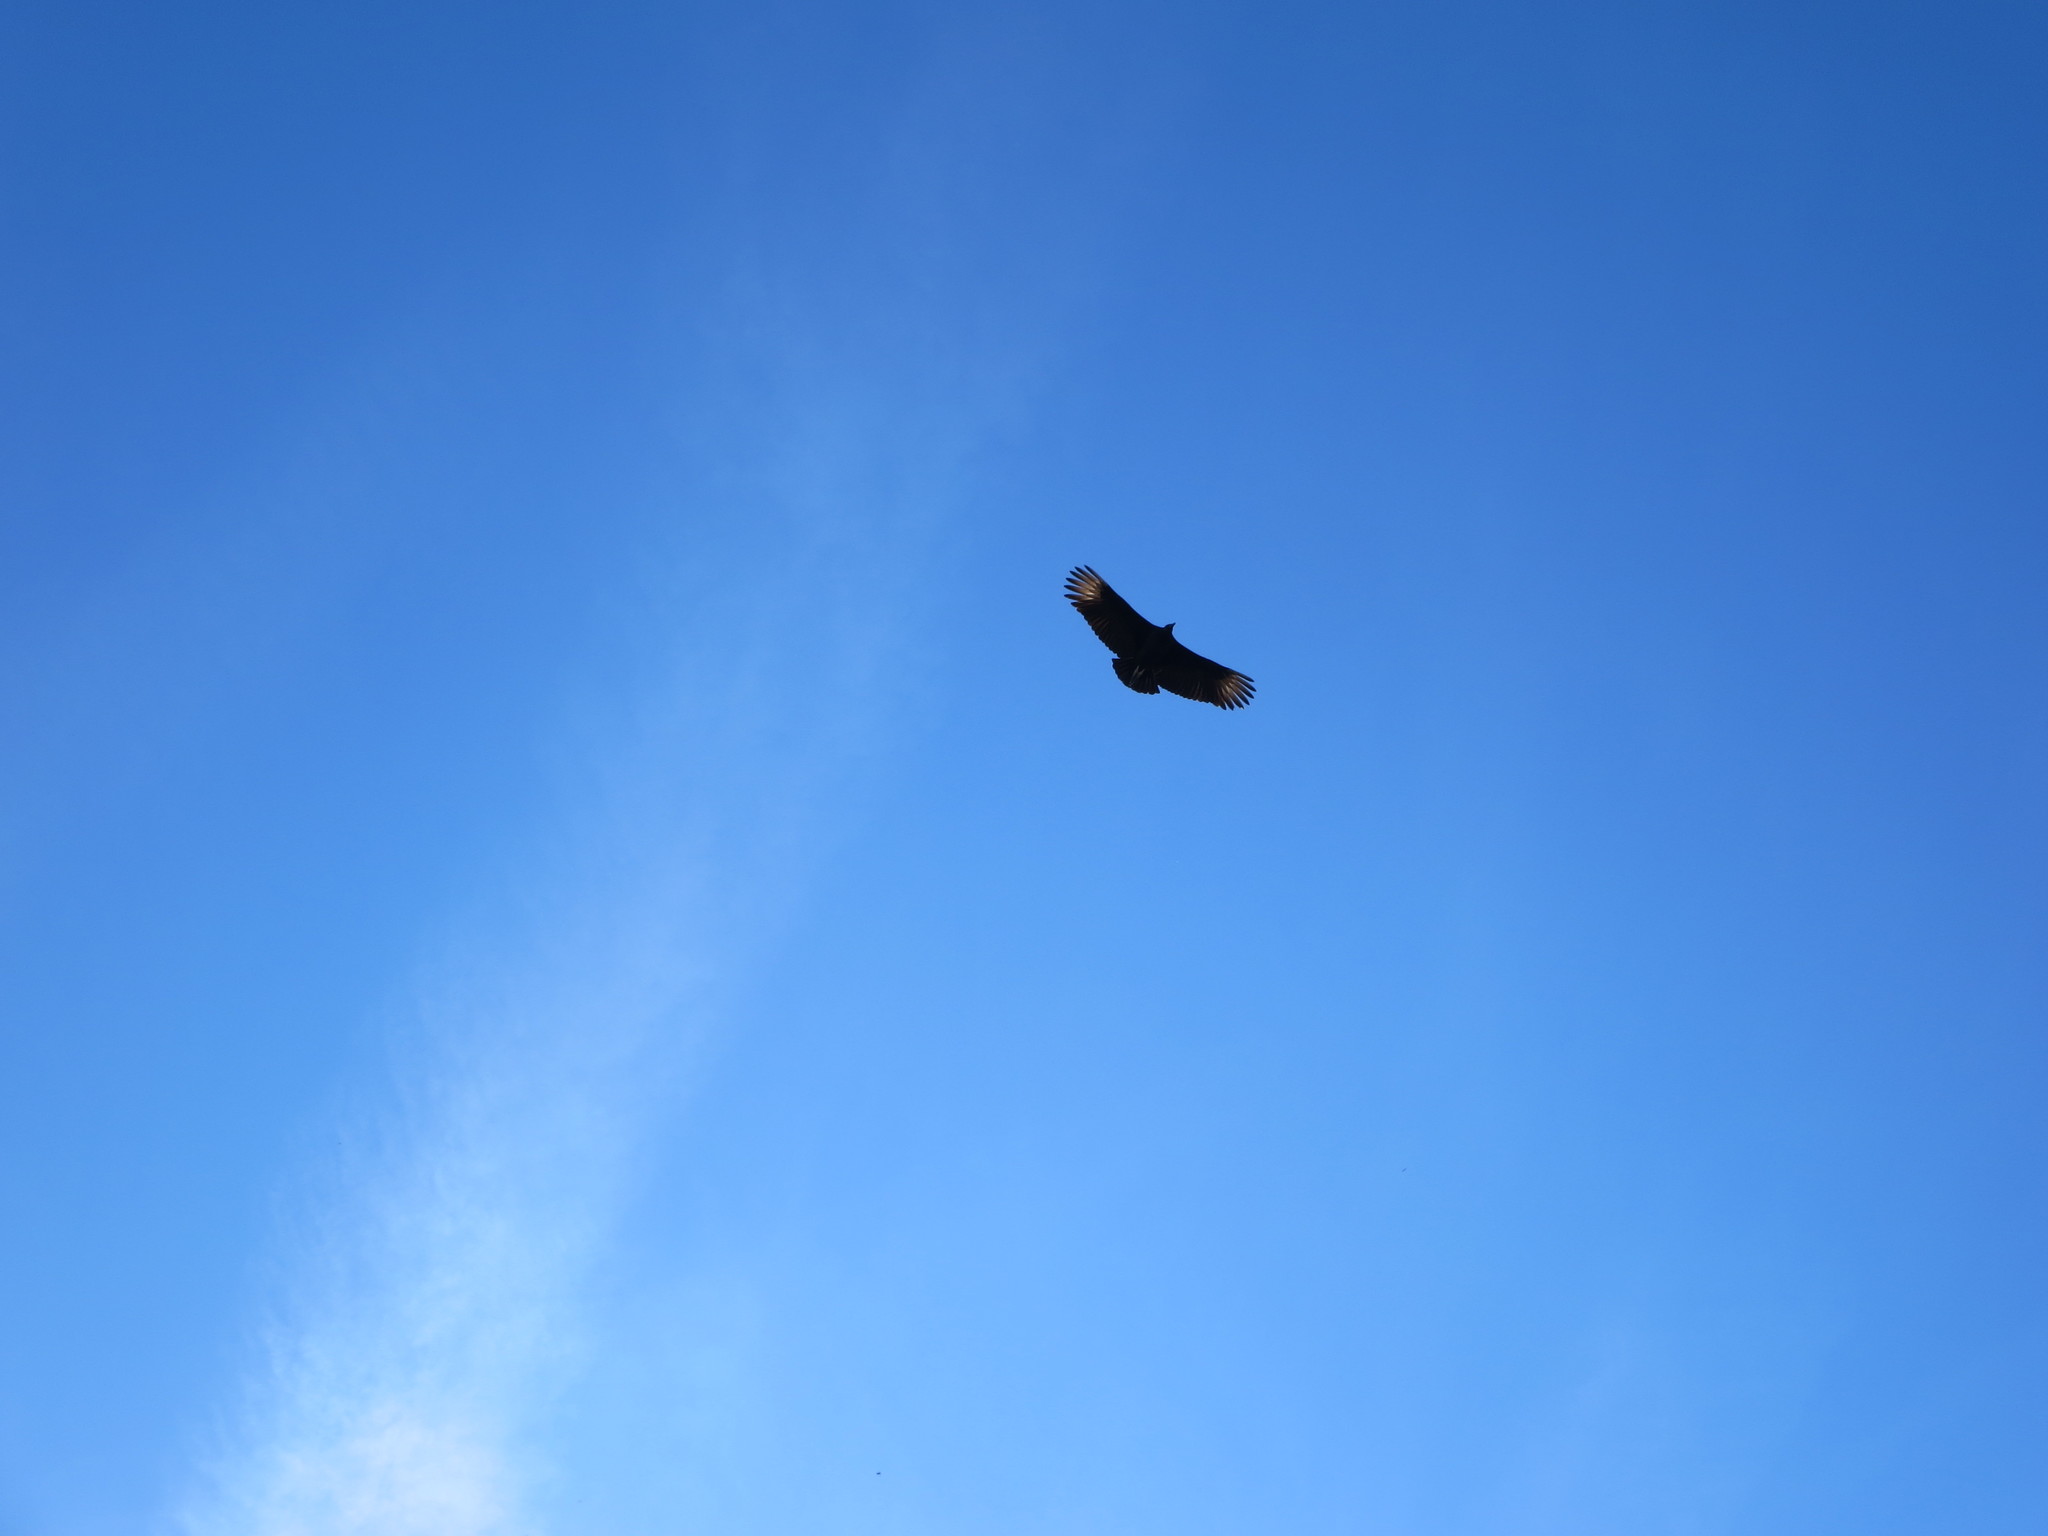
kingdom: Animalia
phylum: Chordata
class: Aves
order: Accipitriformes
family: Cathartidae
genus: Coragyps
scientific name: Coragyps atratus
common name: Black vulture
